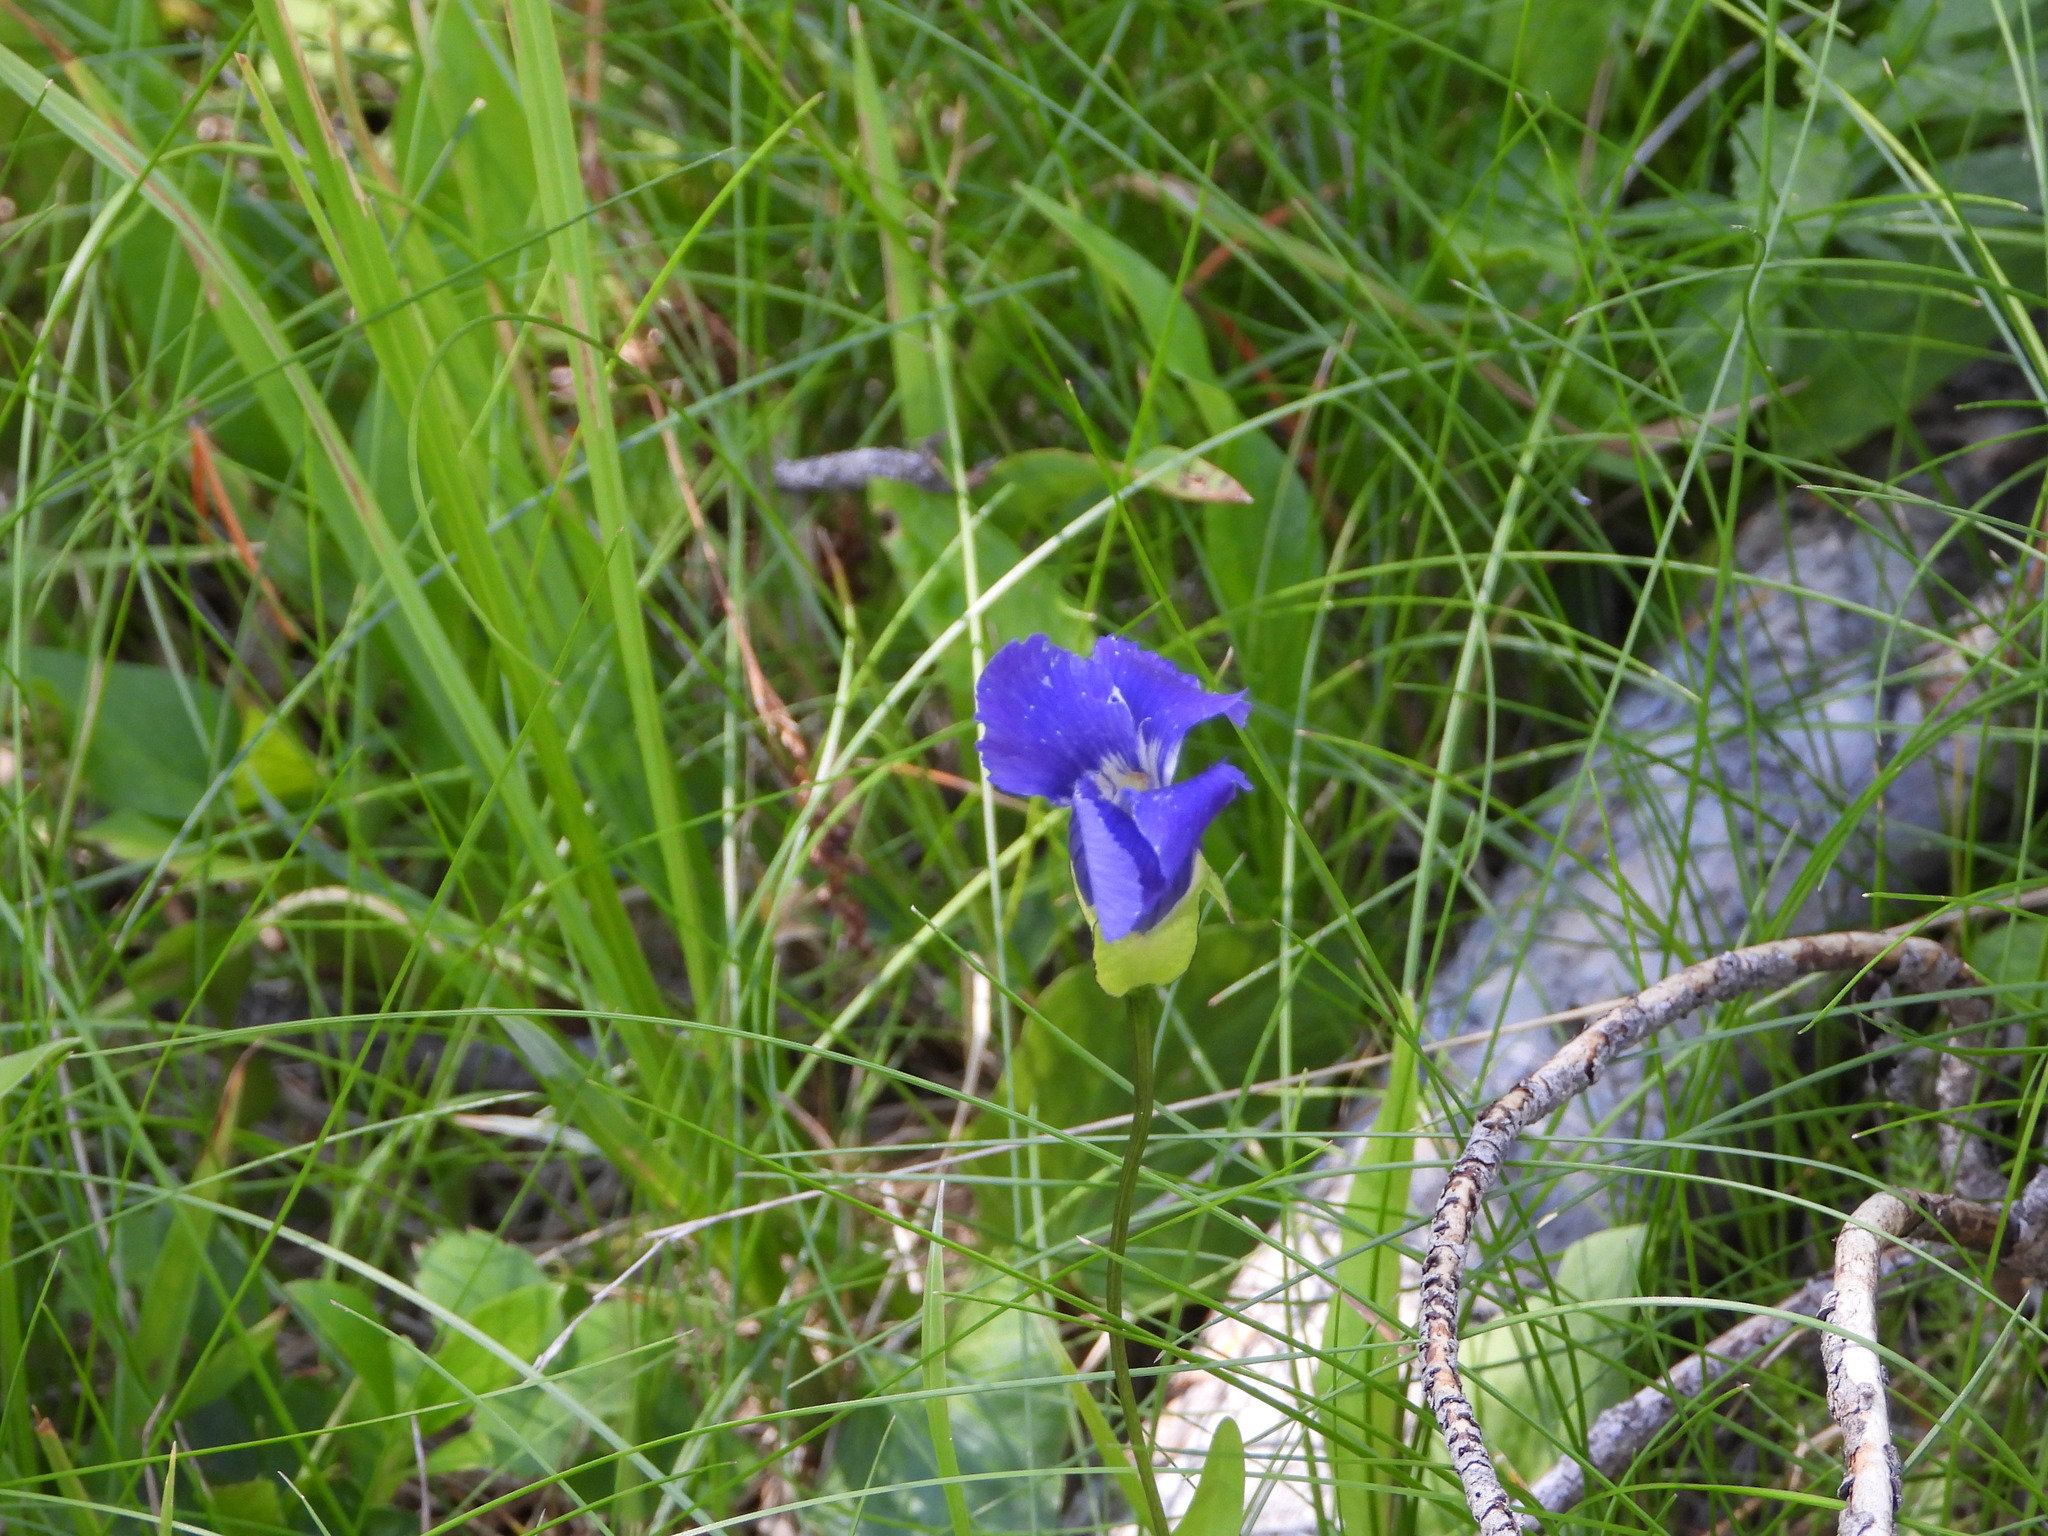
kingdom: Plantae
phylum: Tracheophyta
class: Magnoliopsida
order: Gentianales
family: Gentianaceae
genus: Gentianopsis
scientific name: Gentianopsis thermalis
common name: Rocky mountain fringed-gentian
